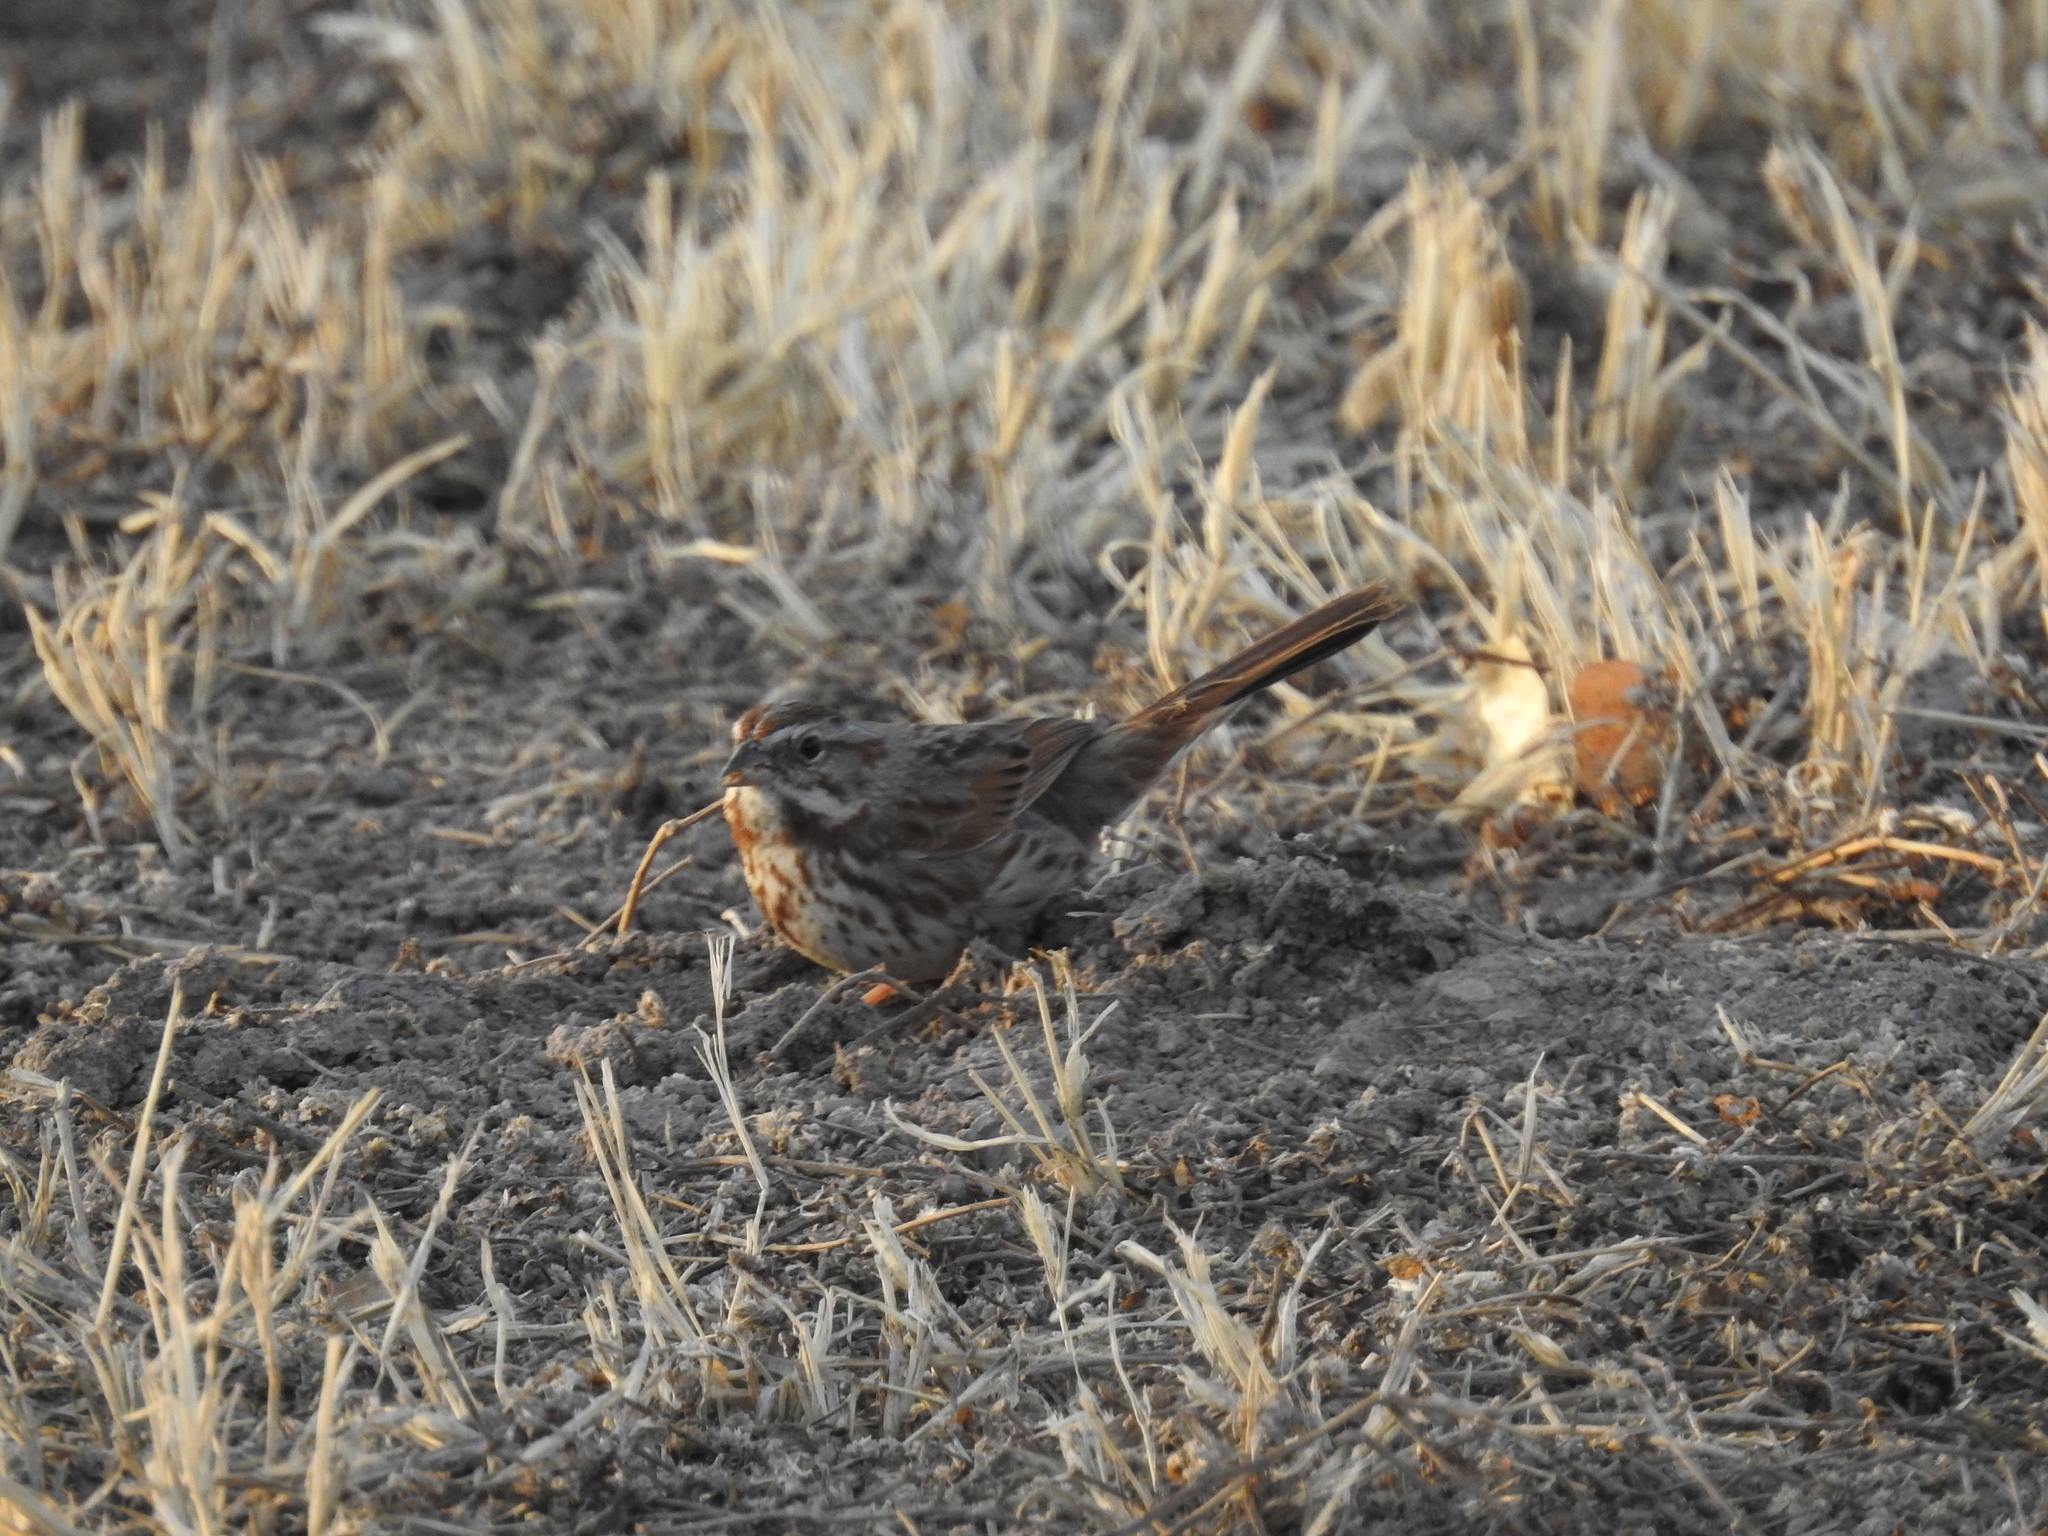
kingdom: Animalia
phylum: Chordata
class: Aves
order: Passeriformes
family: Passerellidae
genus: Melospiza
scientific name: Melospiza melodia
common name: Song sparrow
